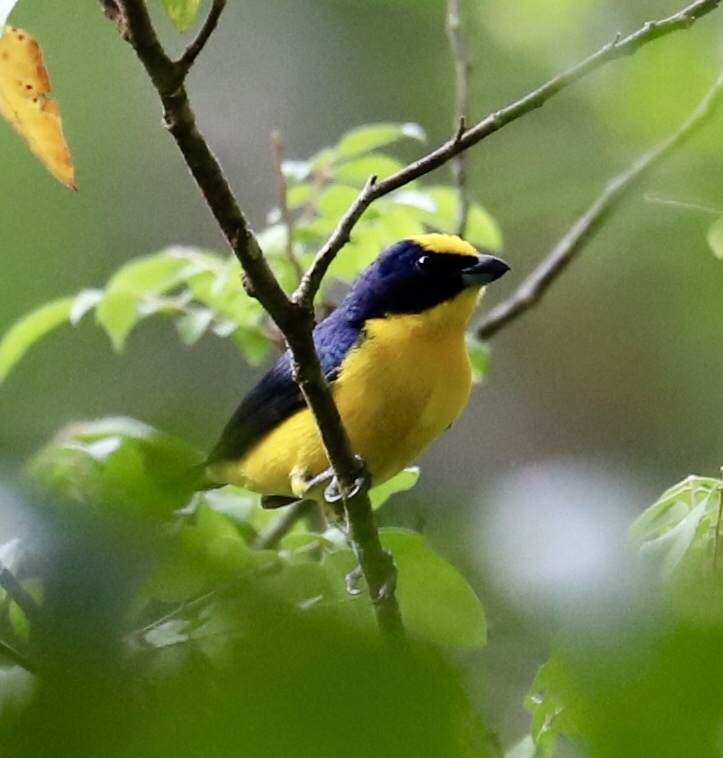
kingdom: Animalia
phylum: Chordata
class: Aves
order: Passeriformes
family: Fringillidae
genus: Euphonia
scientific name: Euphonia laniirostris
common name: Thick-billed euphonia
